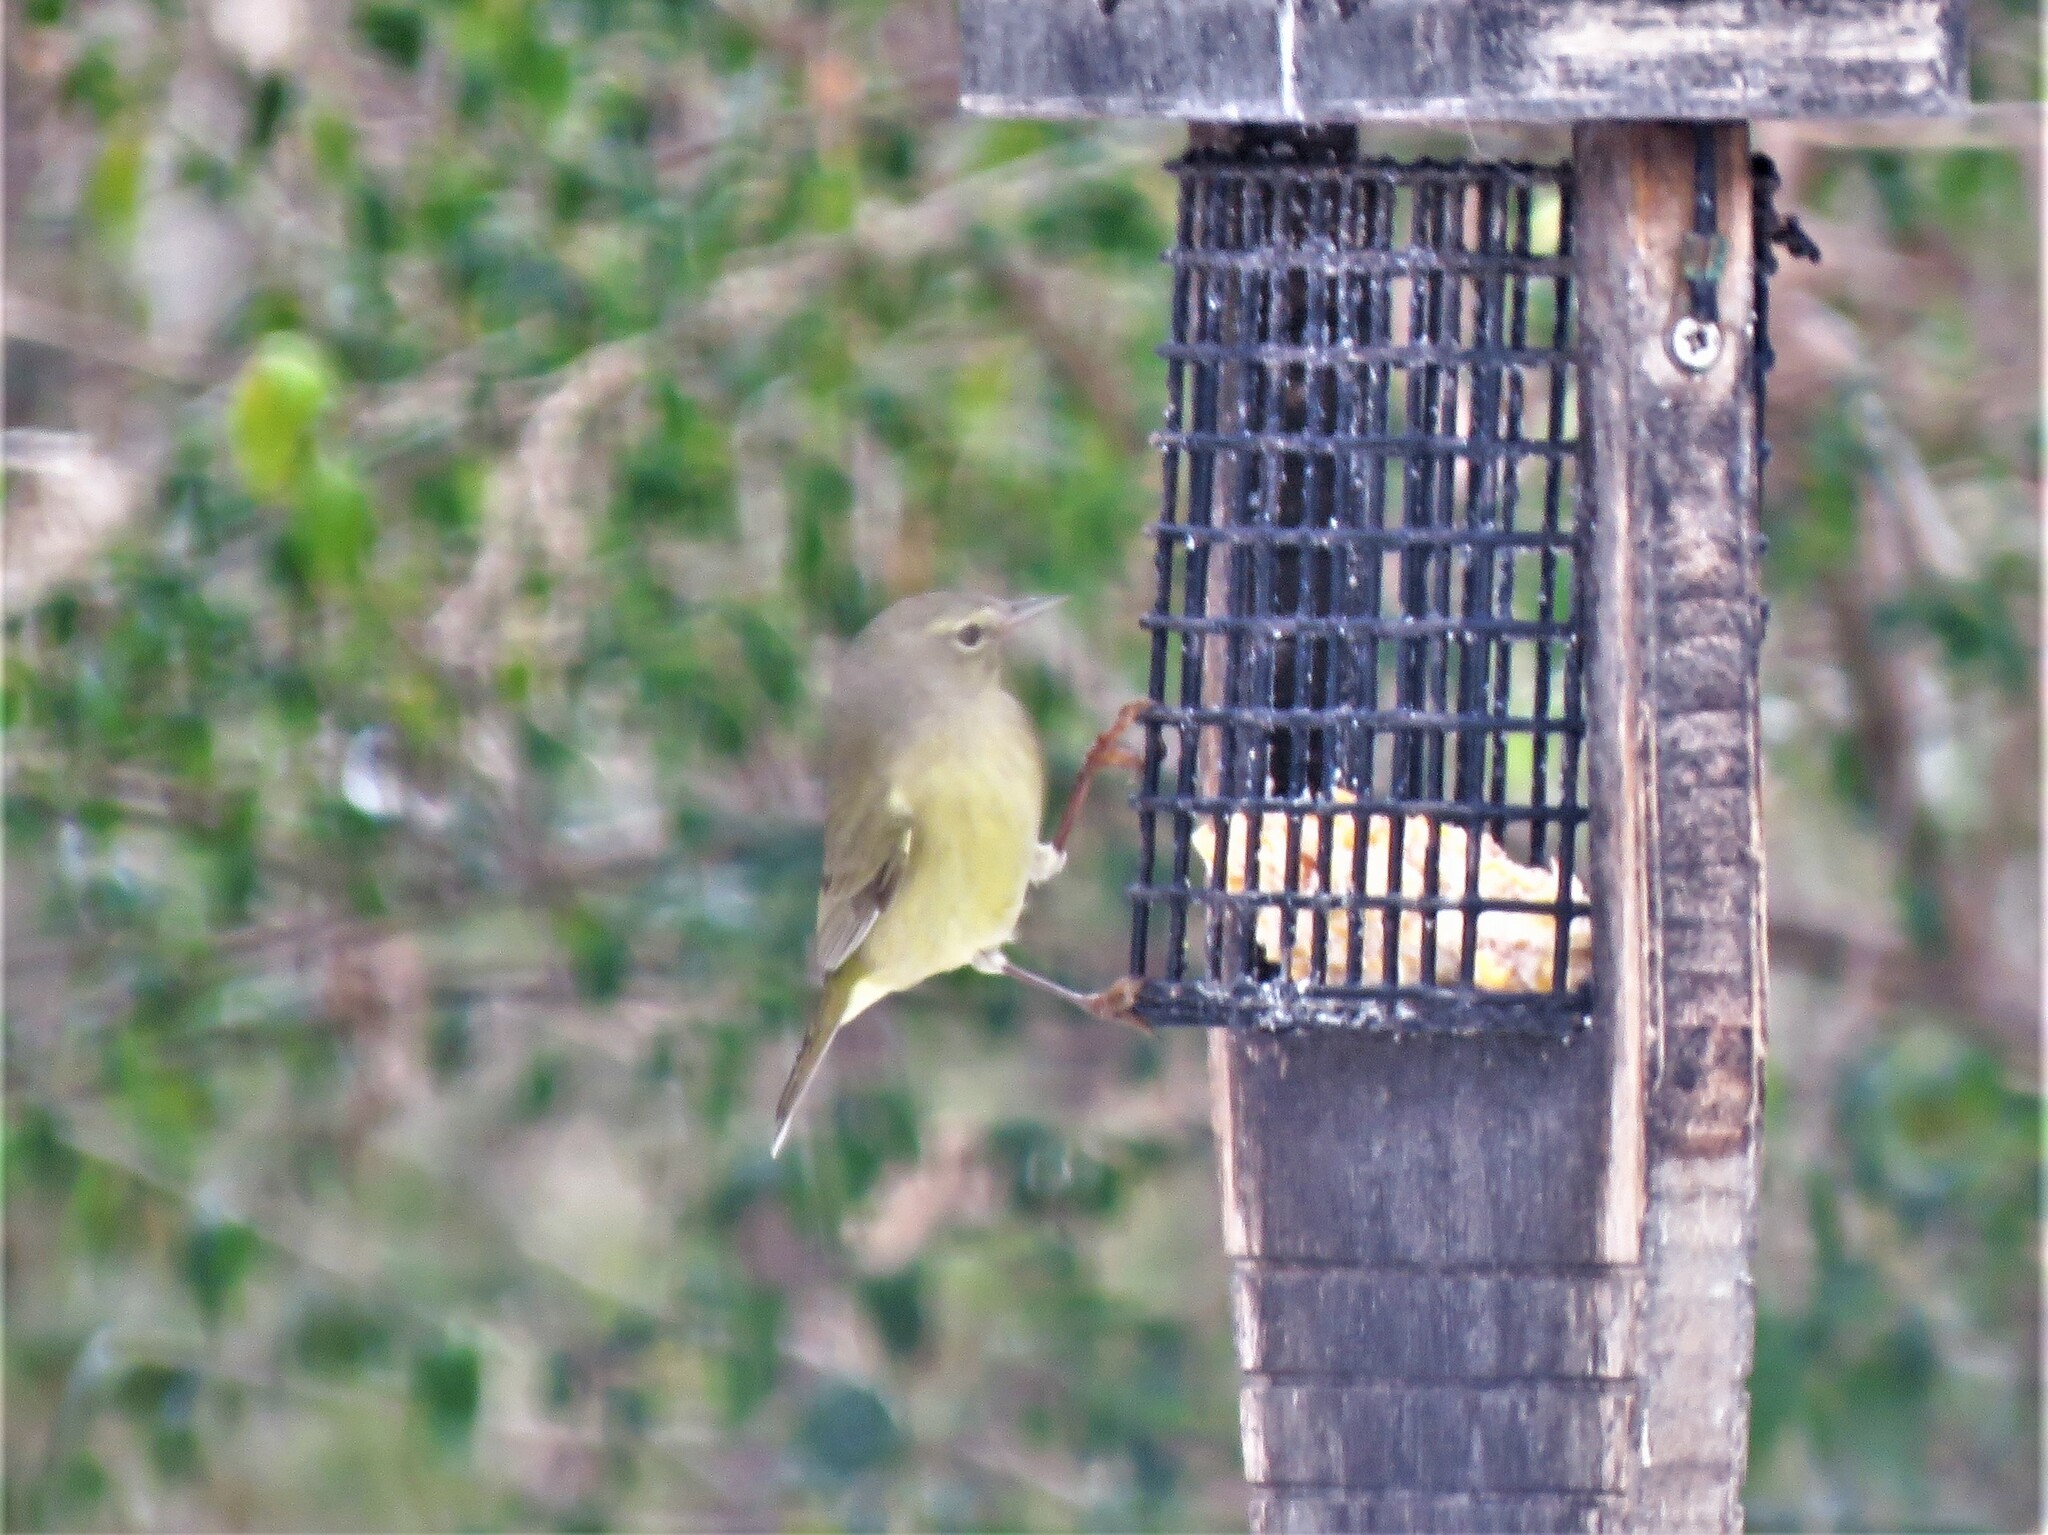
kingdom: Animalia
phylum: Chordata
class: Aves
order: Passeriformes
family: Parulidae
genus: Leiothlypis
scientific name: Leiothlypis celata
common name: Orange-crowned warbler
